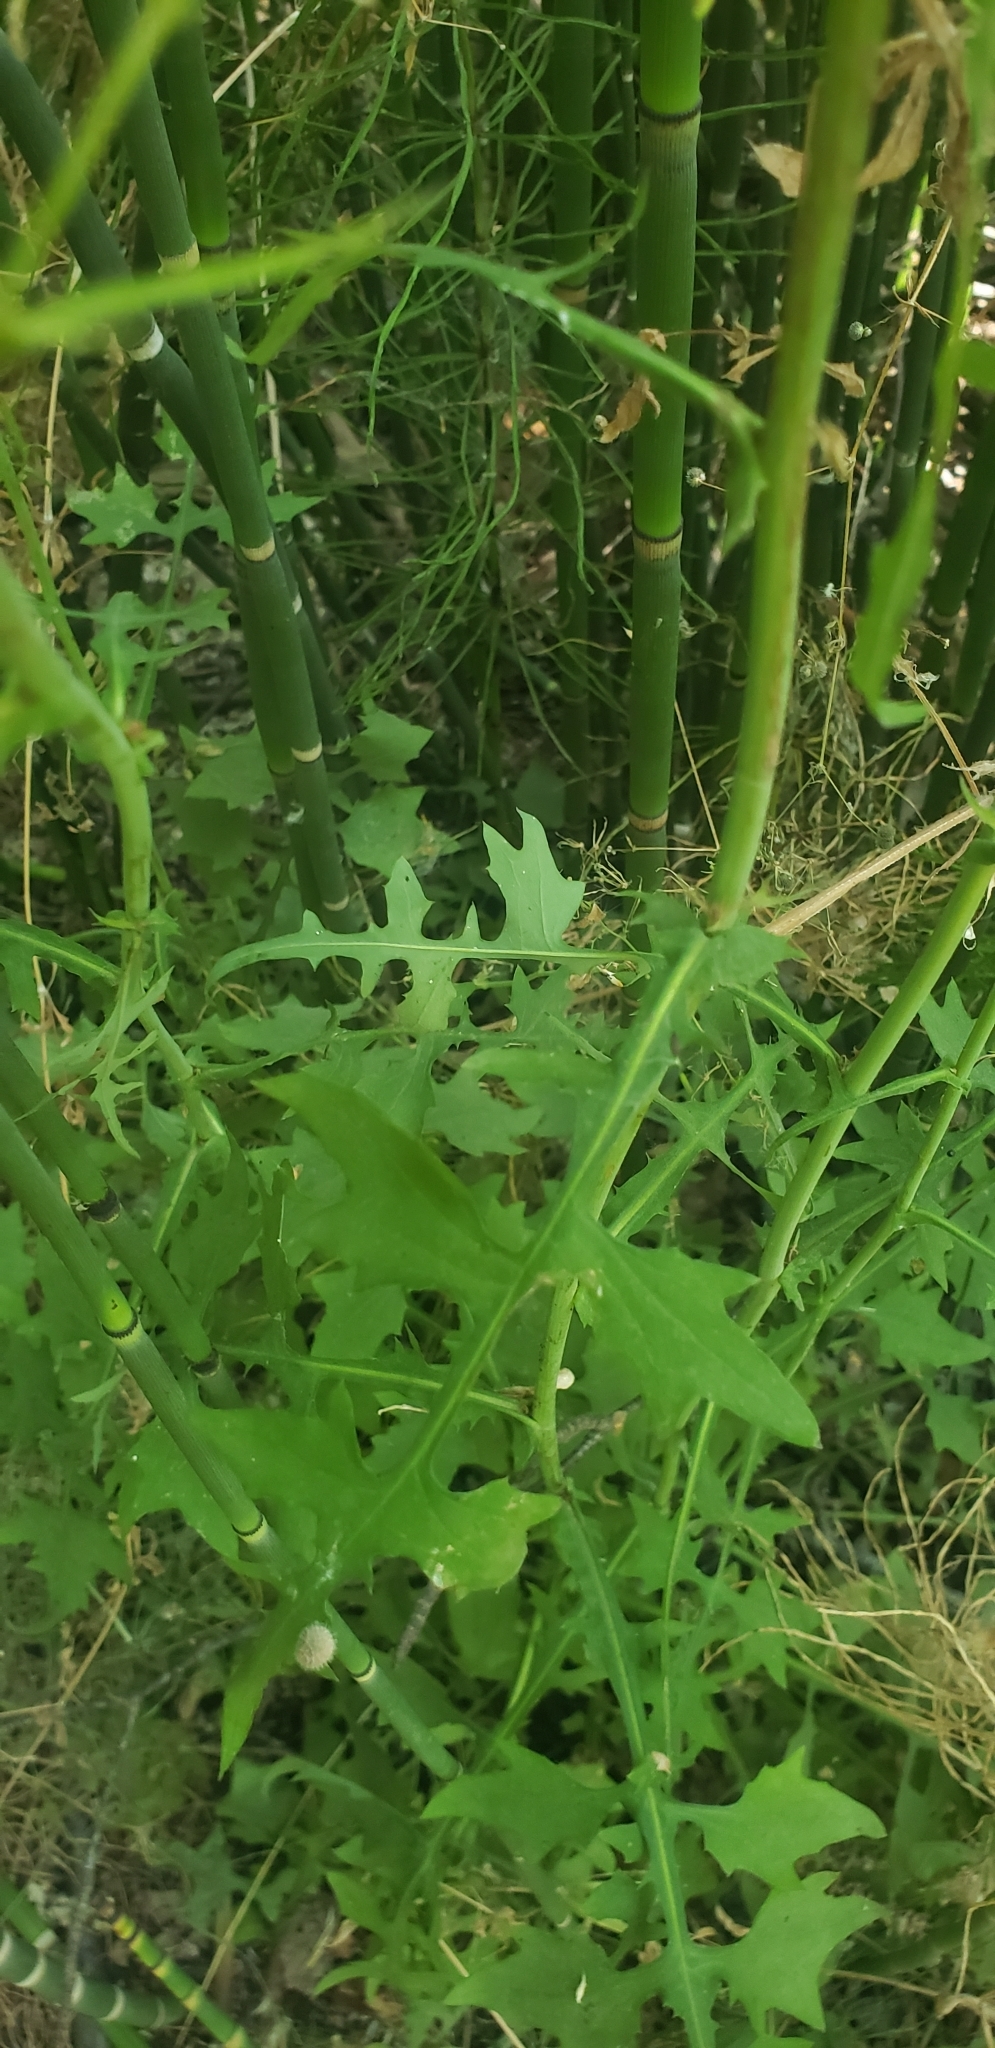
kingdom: Plantae
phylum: Tracheophyta
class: Magnoliopsida
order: Asterales
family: Asteraceae
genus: Mycelis
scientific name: Mycelis muralis
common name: Wall lettuce
